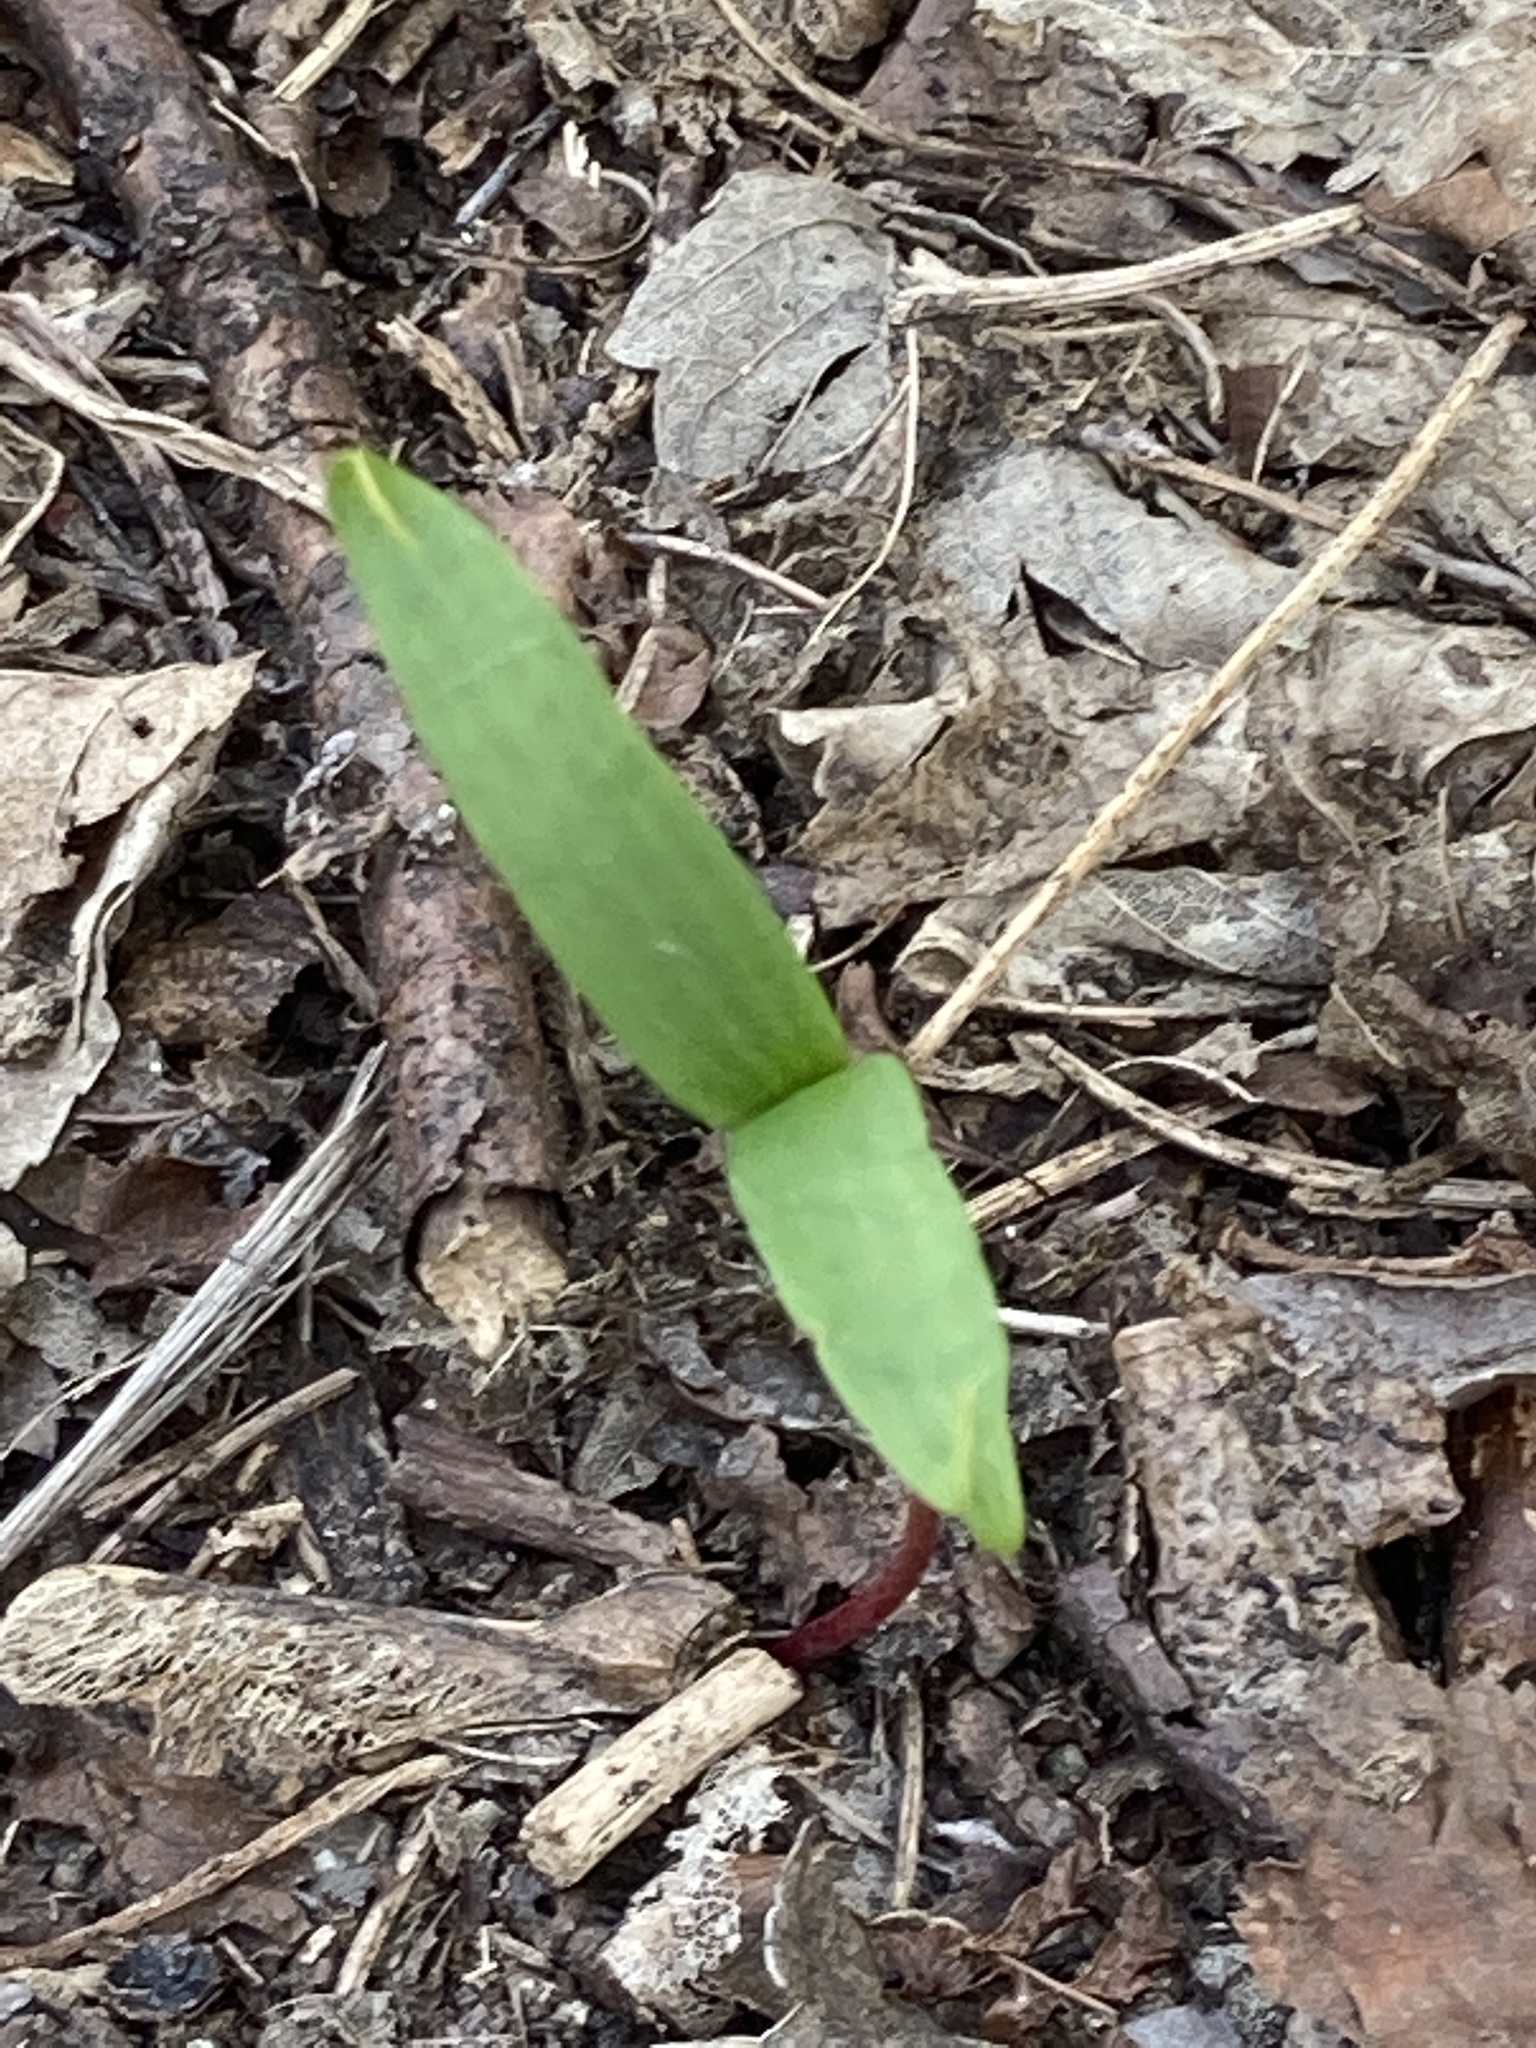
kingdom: Plantae
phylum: Tracheophyta
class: Magnoliopsida
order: Sapindales
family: Sapindaceae
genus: Acer
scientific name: Acer pseudoplatanus
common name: Sycamore
